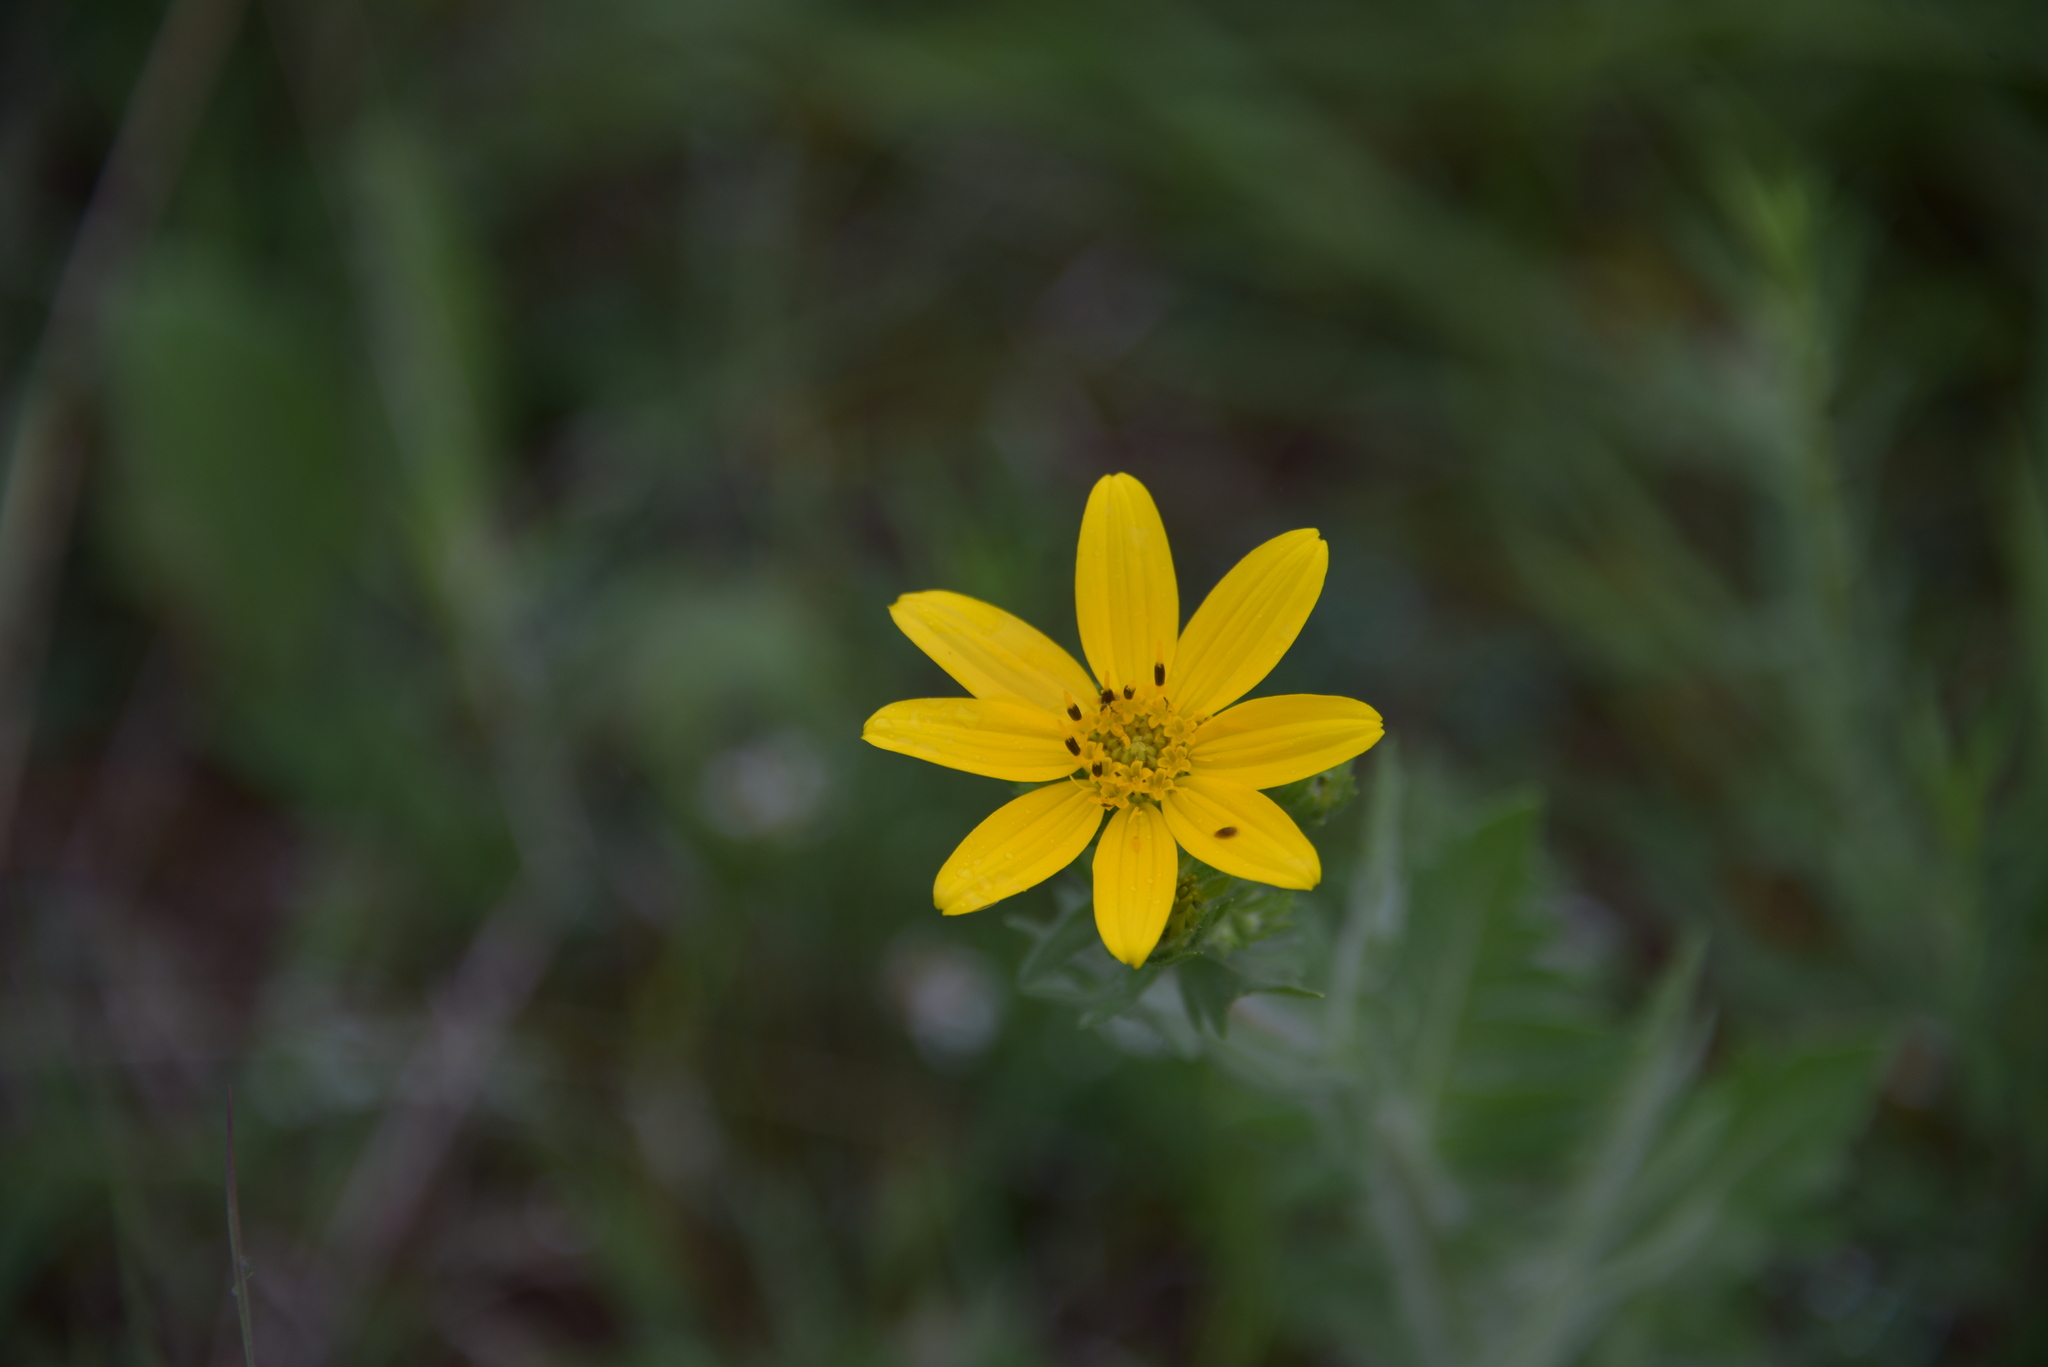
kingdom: Plantae
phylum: Tracheophyta
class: Magnoliopsida
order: Asterales
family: Asteraceae
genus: Engelmannia
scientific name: Engelmannia peristenia
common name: Engelmann's daisy
